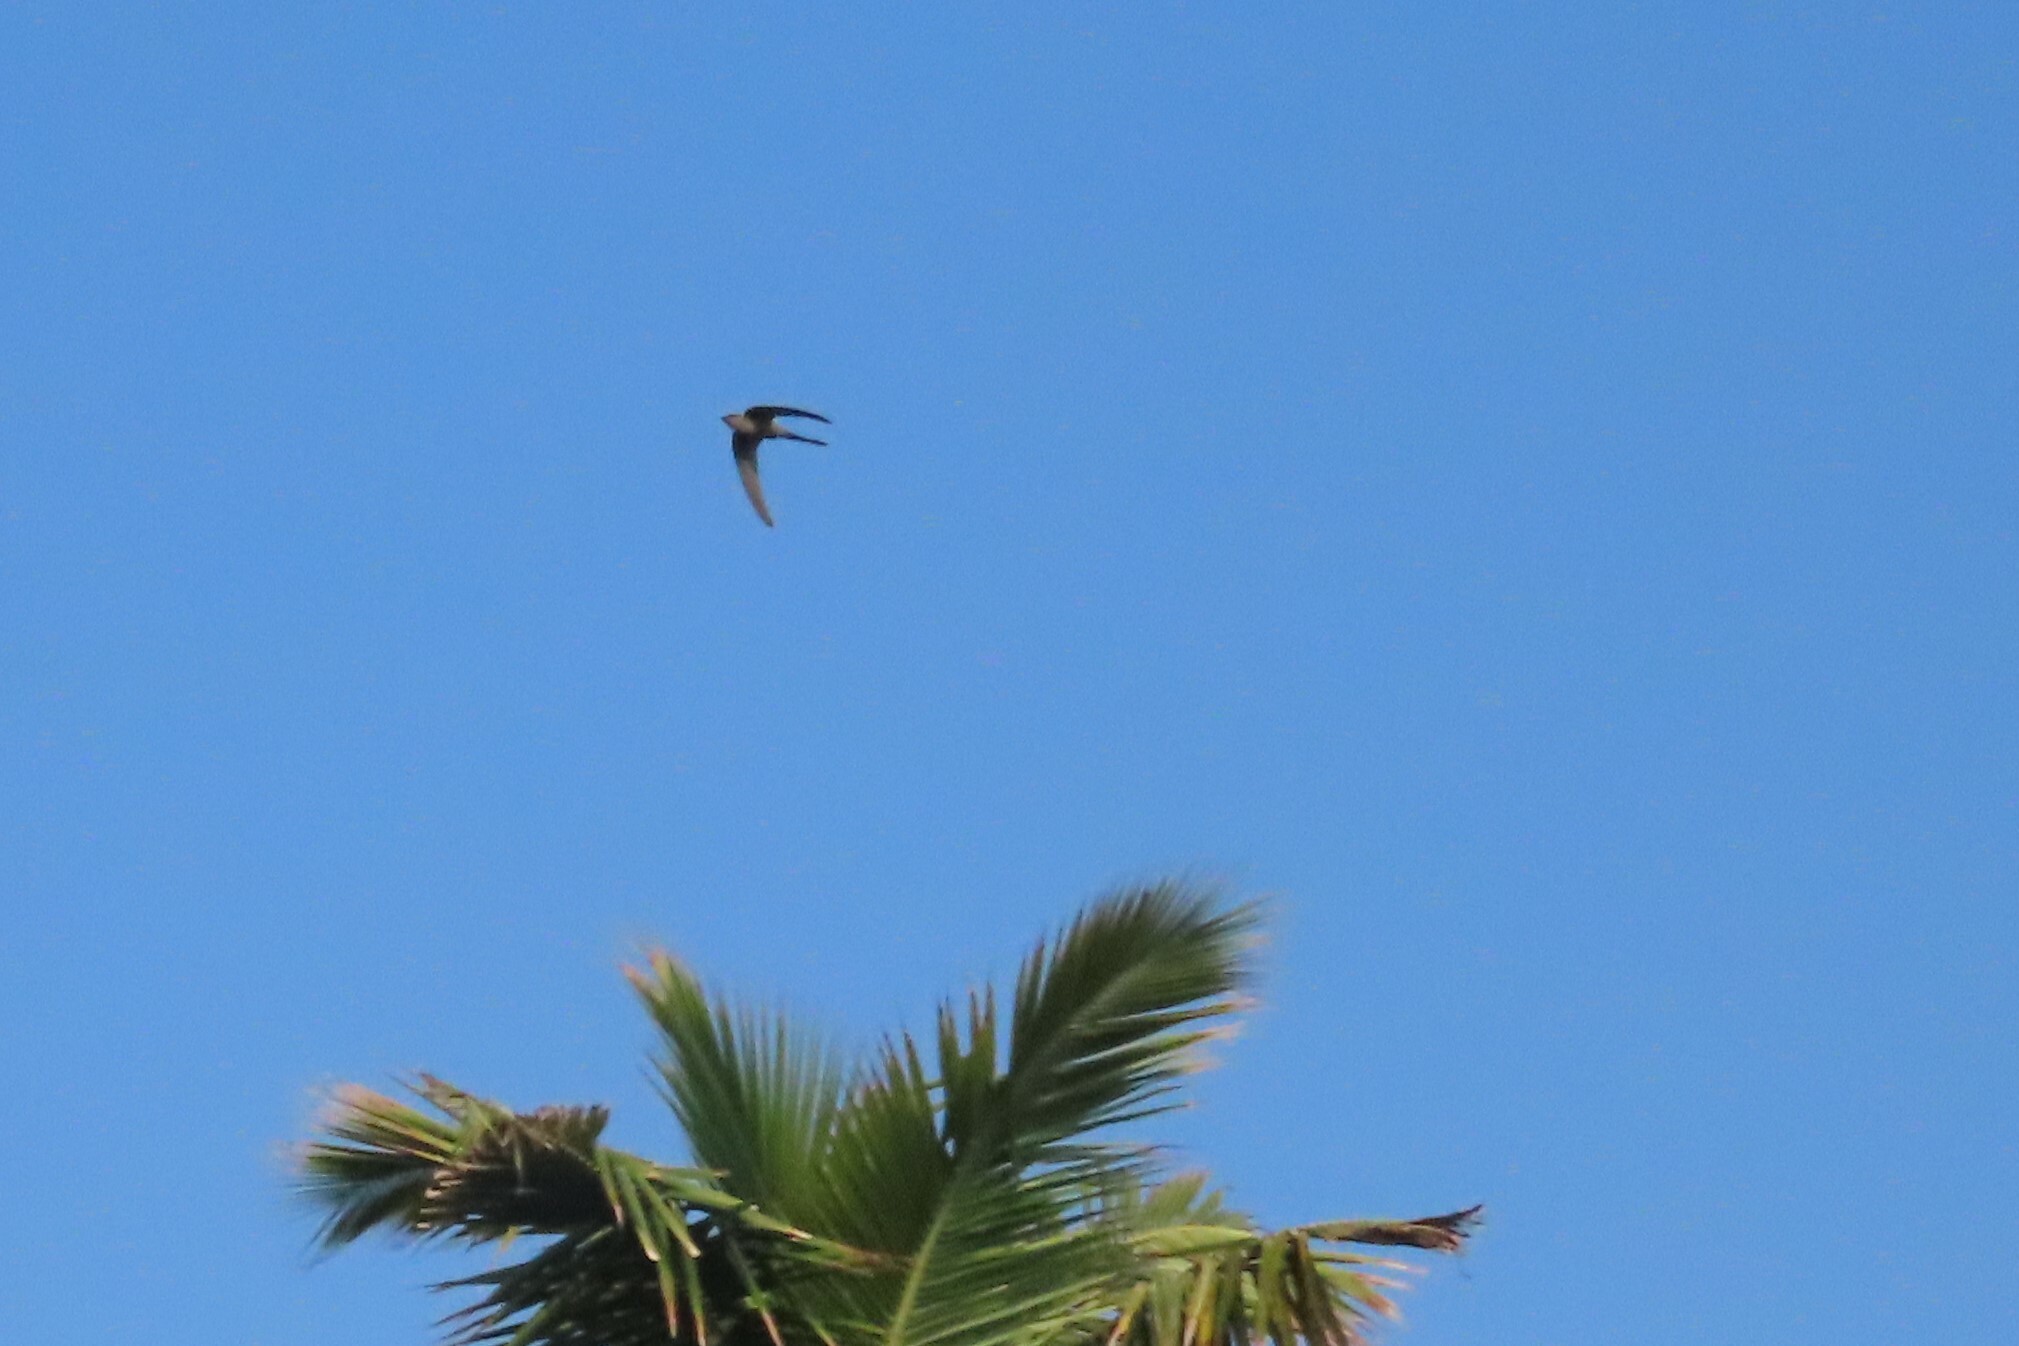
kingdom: Animalia
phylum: Chordata
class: Aves
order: Apodiformes
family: Apodidae
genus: Cypsiurus
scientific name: Cypsiurus balasiensis
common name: Asian palm swift
